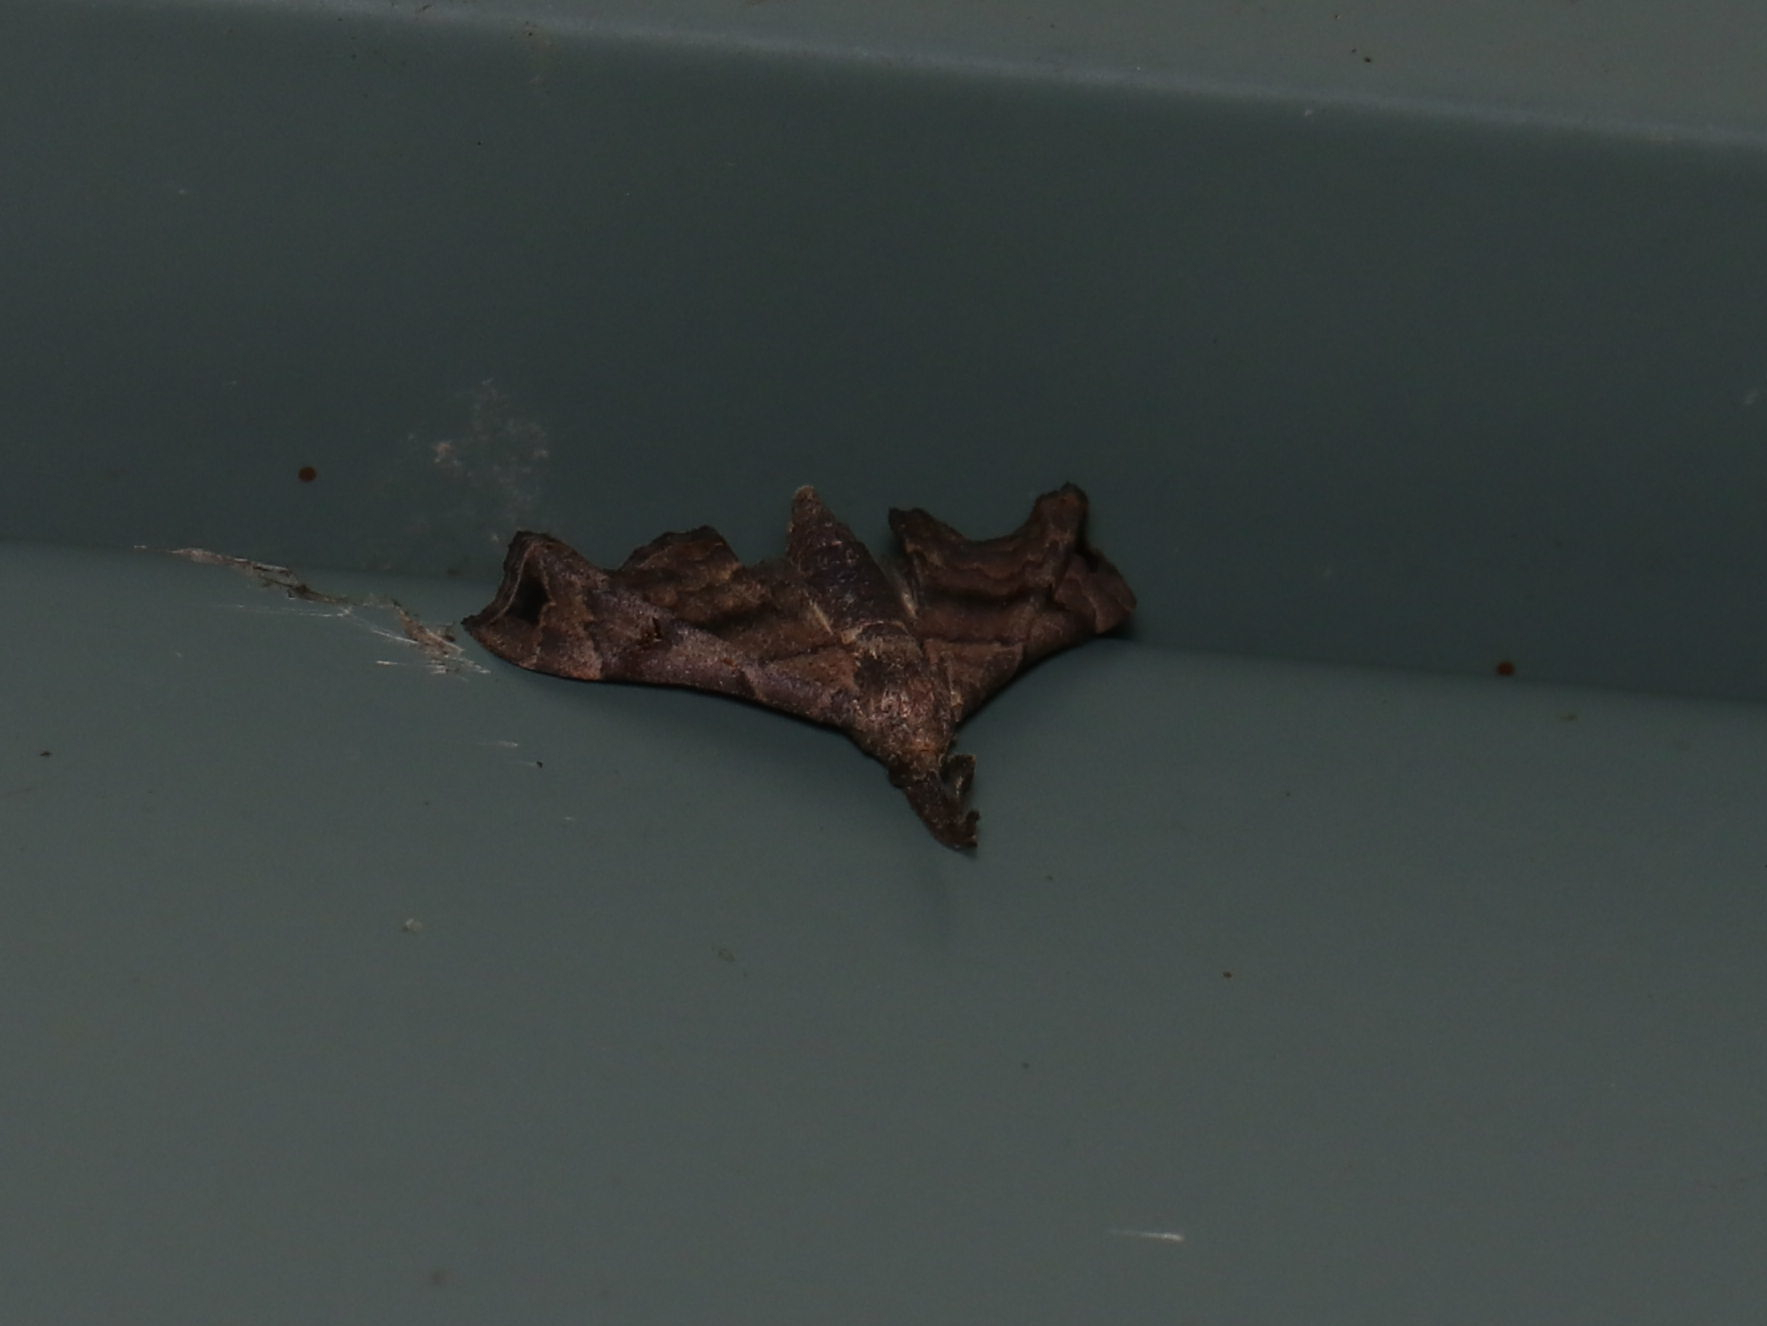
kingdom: Animalia
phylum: Arthropoda
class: Insecta
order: Lepidoptera
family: Erebidae
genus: Palthis
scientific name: Palthis asopialis
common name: Faint-spotted palthis moth
